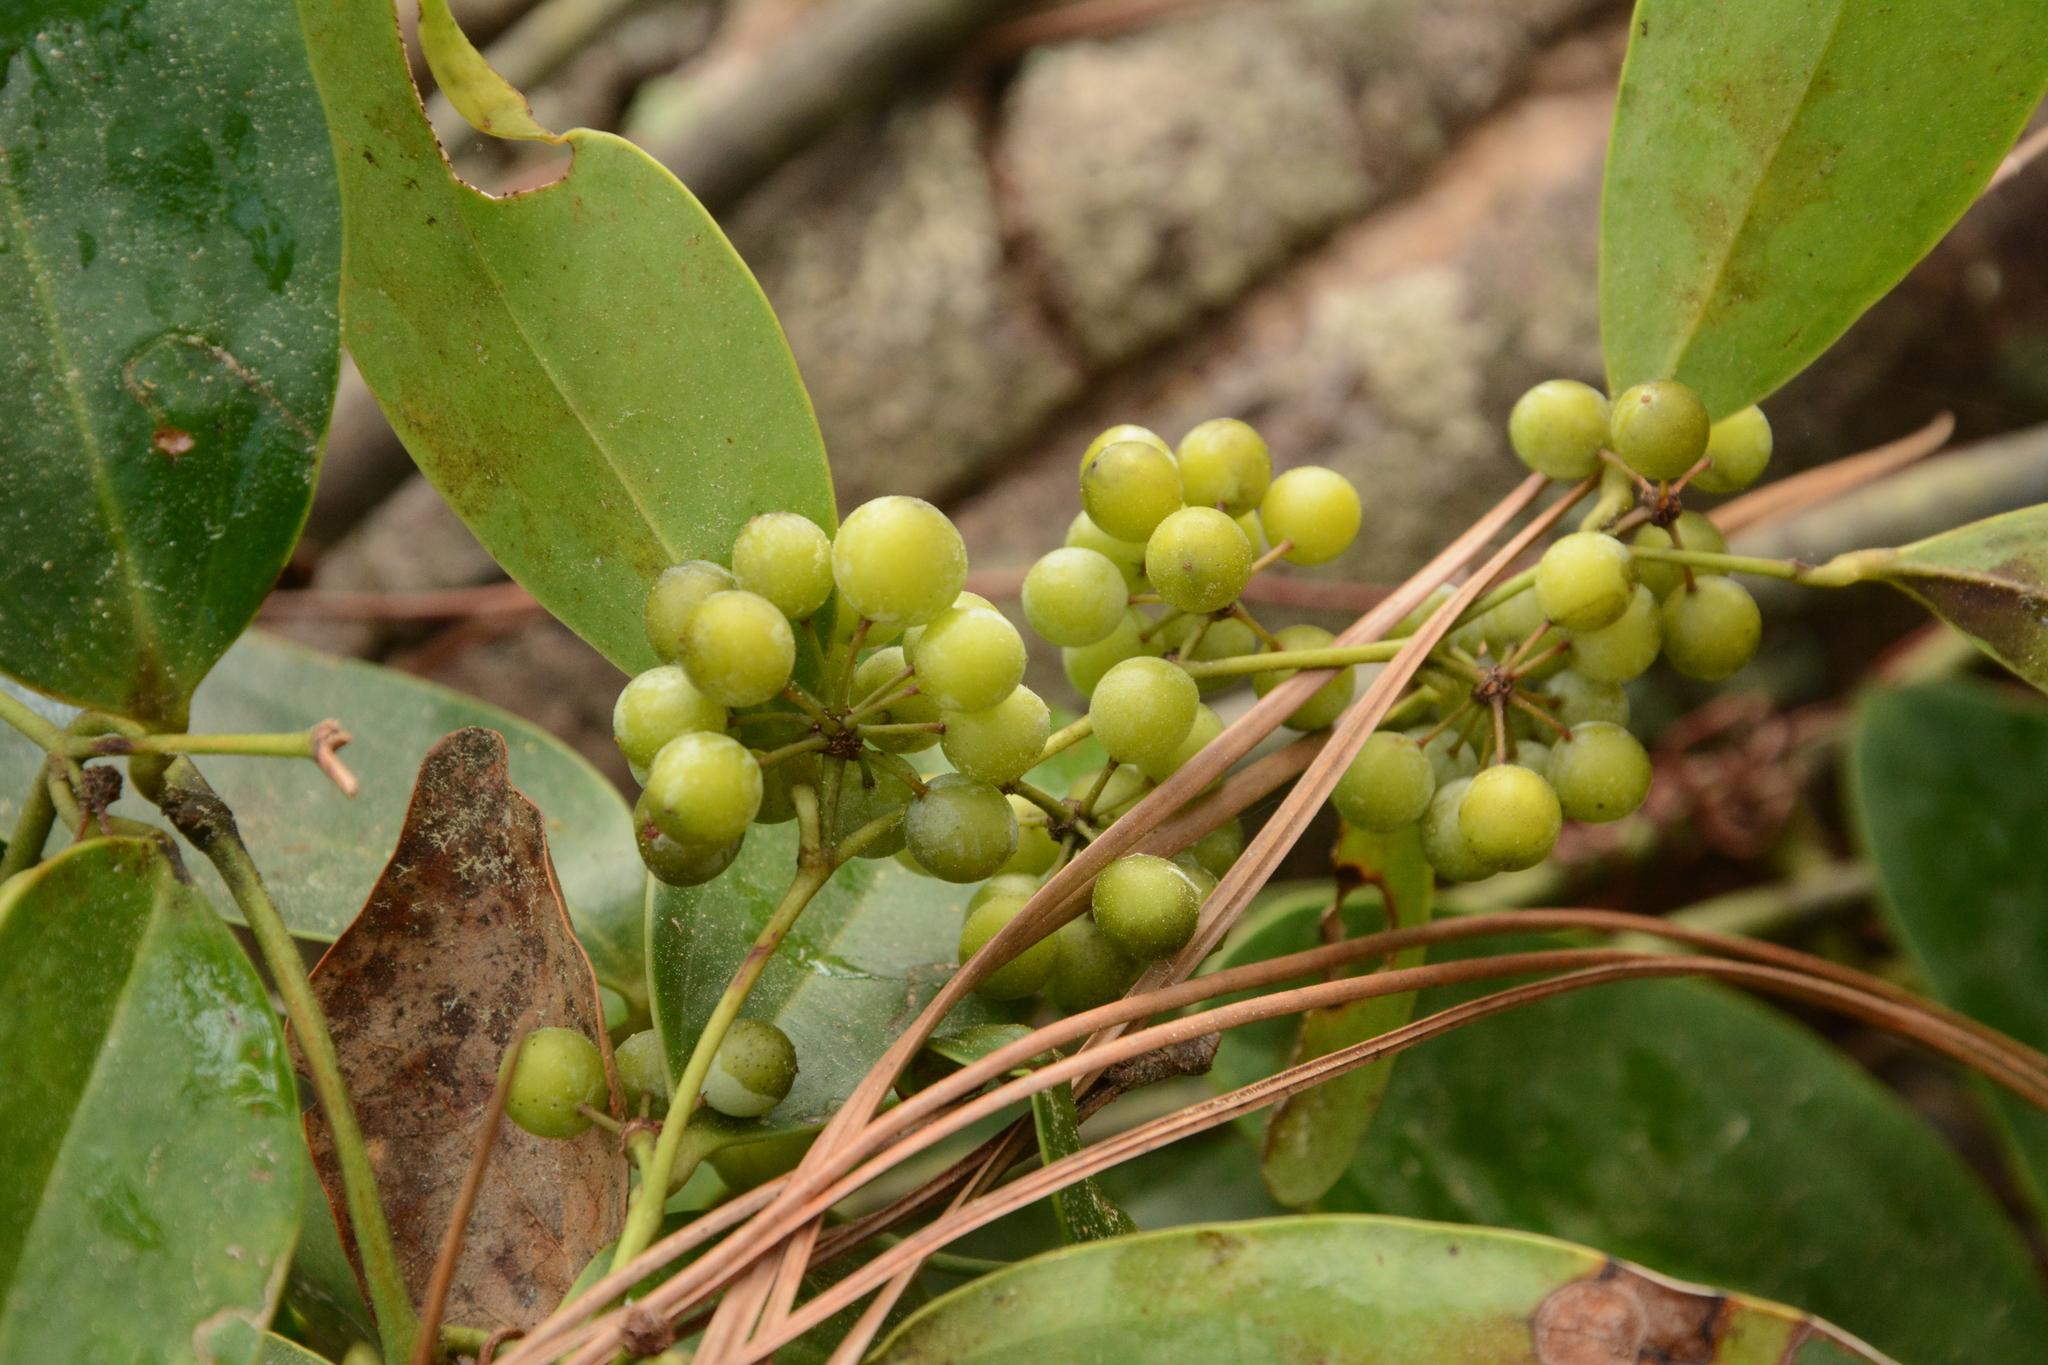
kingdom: Plantae
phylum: Tracheophyta
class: Liliopsida
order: Liliales
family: Smilacaceae
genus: Smilax
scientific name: Smilax laurifolia
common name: Bamboovine
